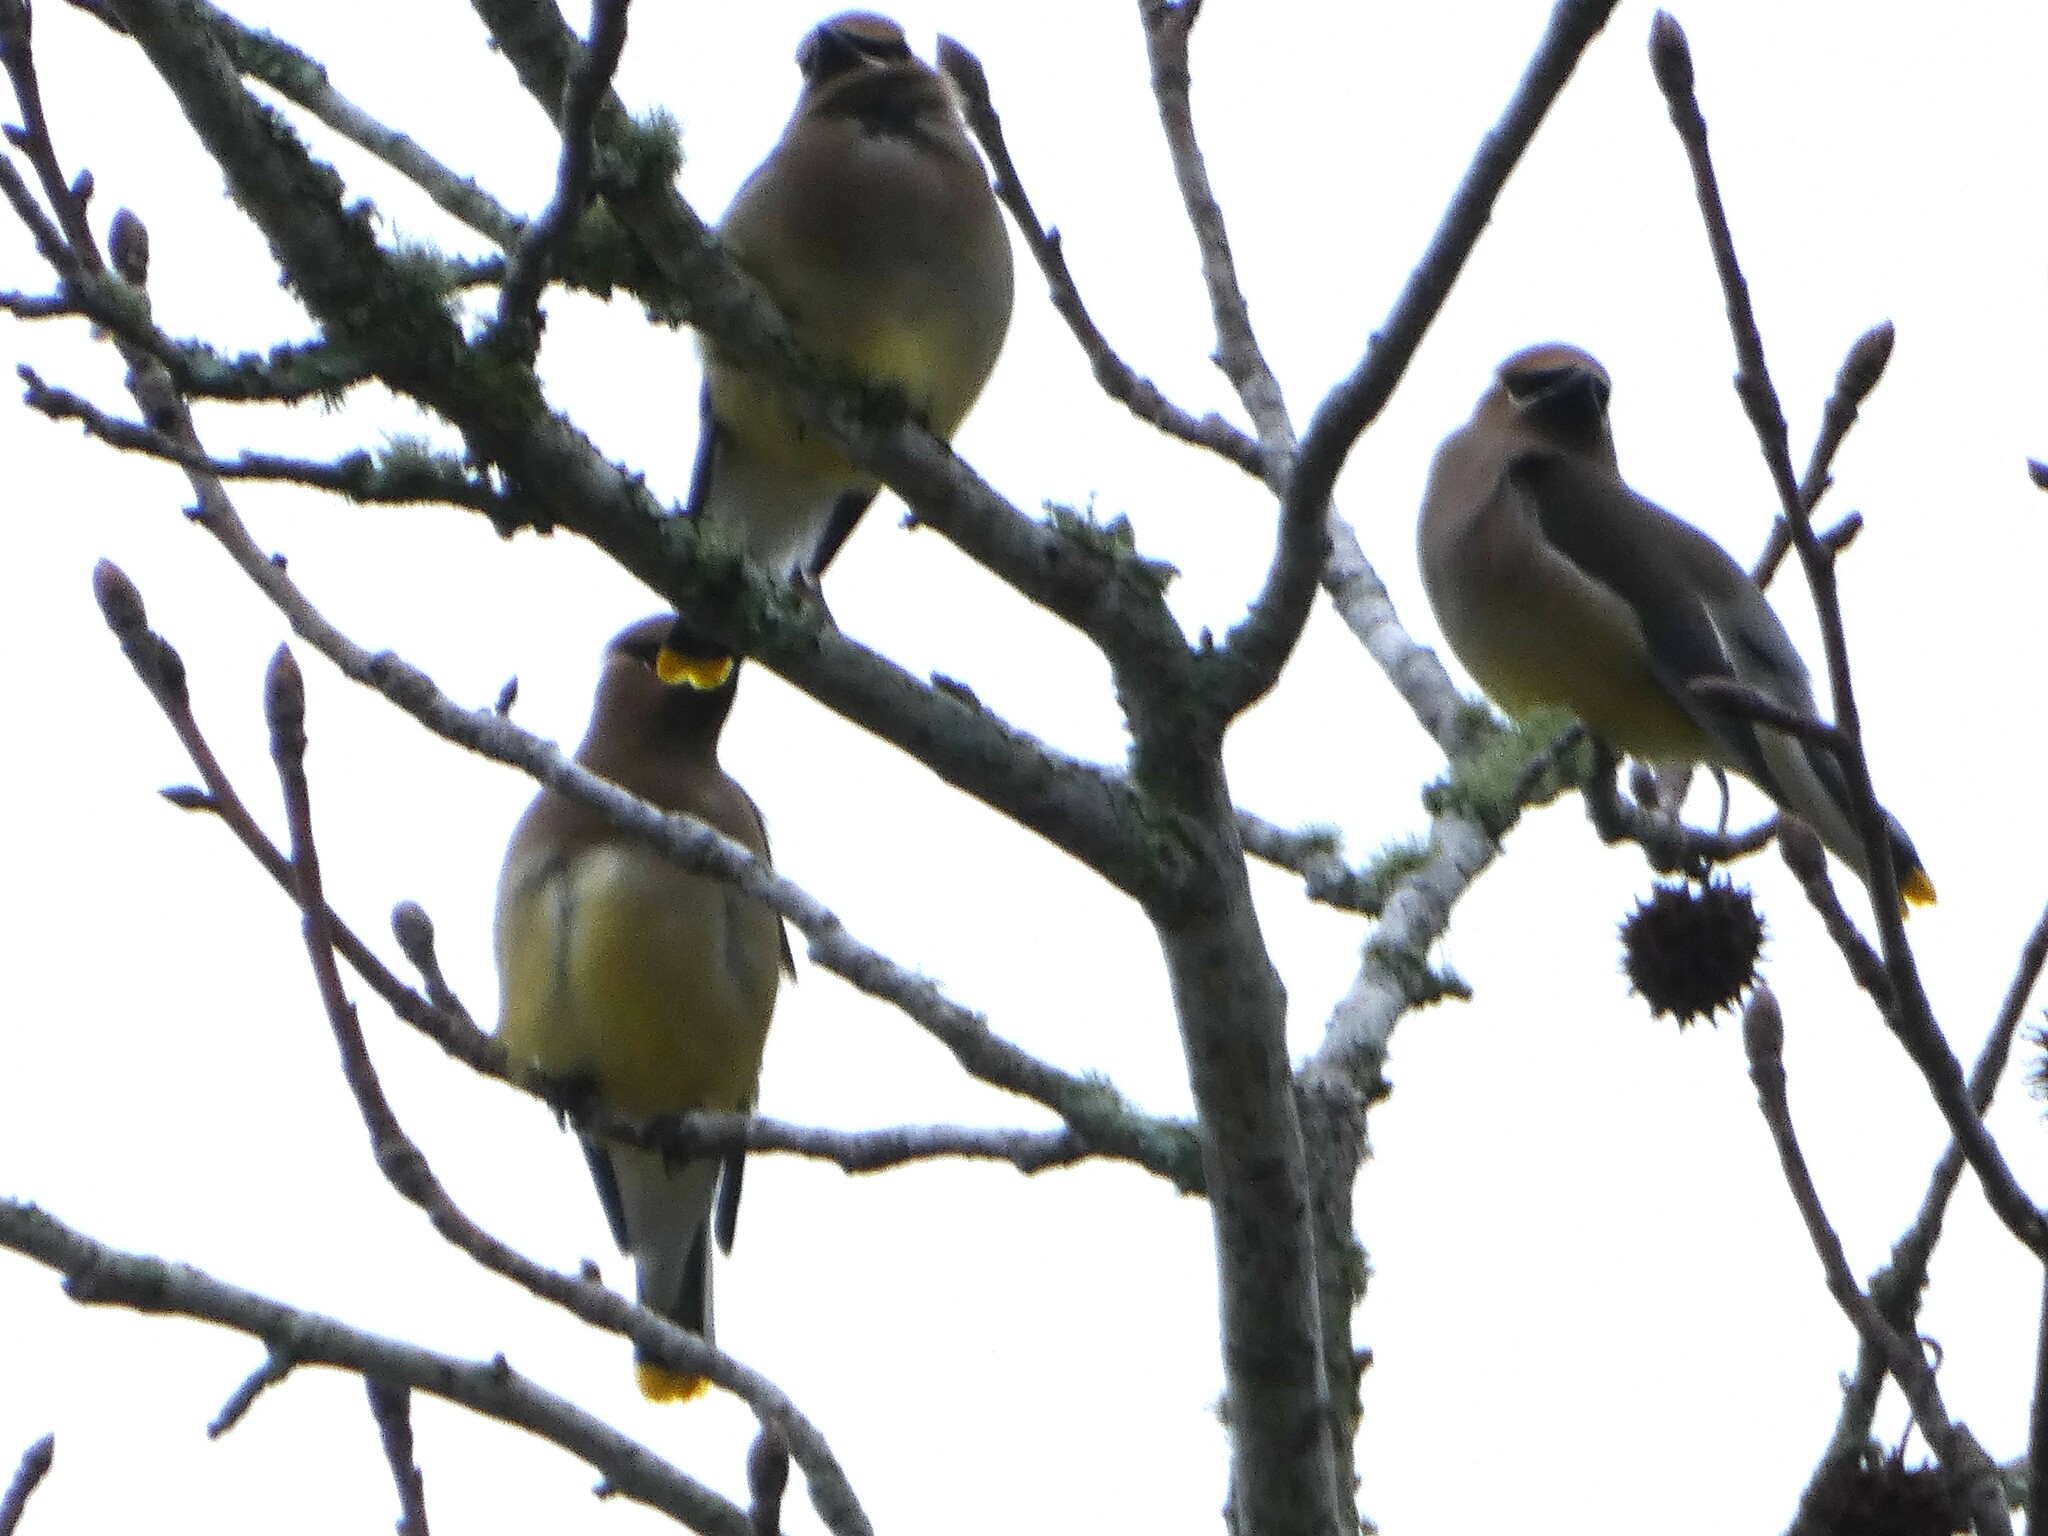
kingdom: Animalia
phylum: Chordata
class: Aves
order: Passeriformes
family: Bombycillidae
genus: Bombycilla
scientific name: Bombycilla cedrorum
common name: Cedar waxwing
